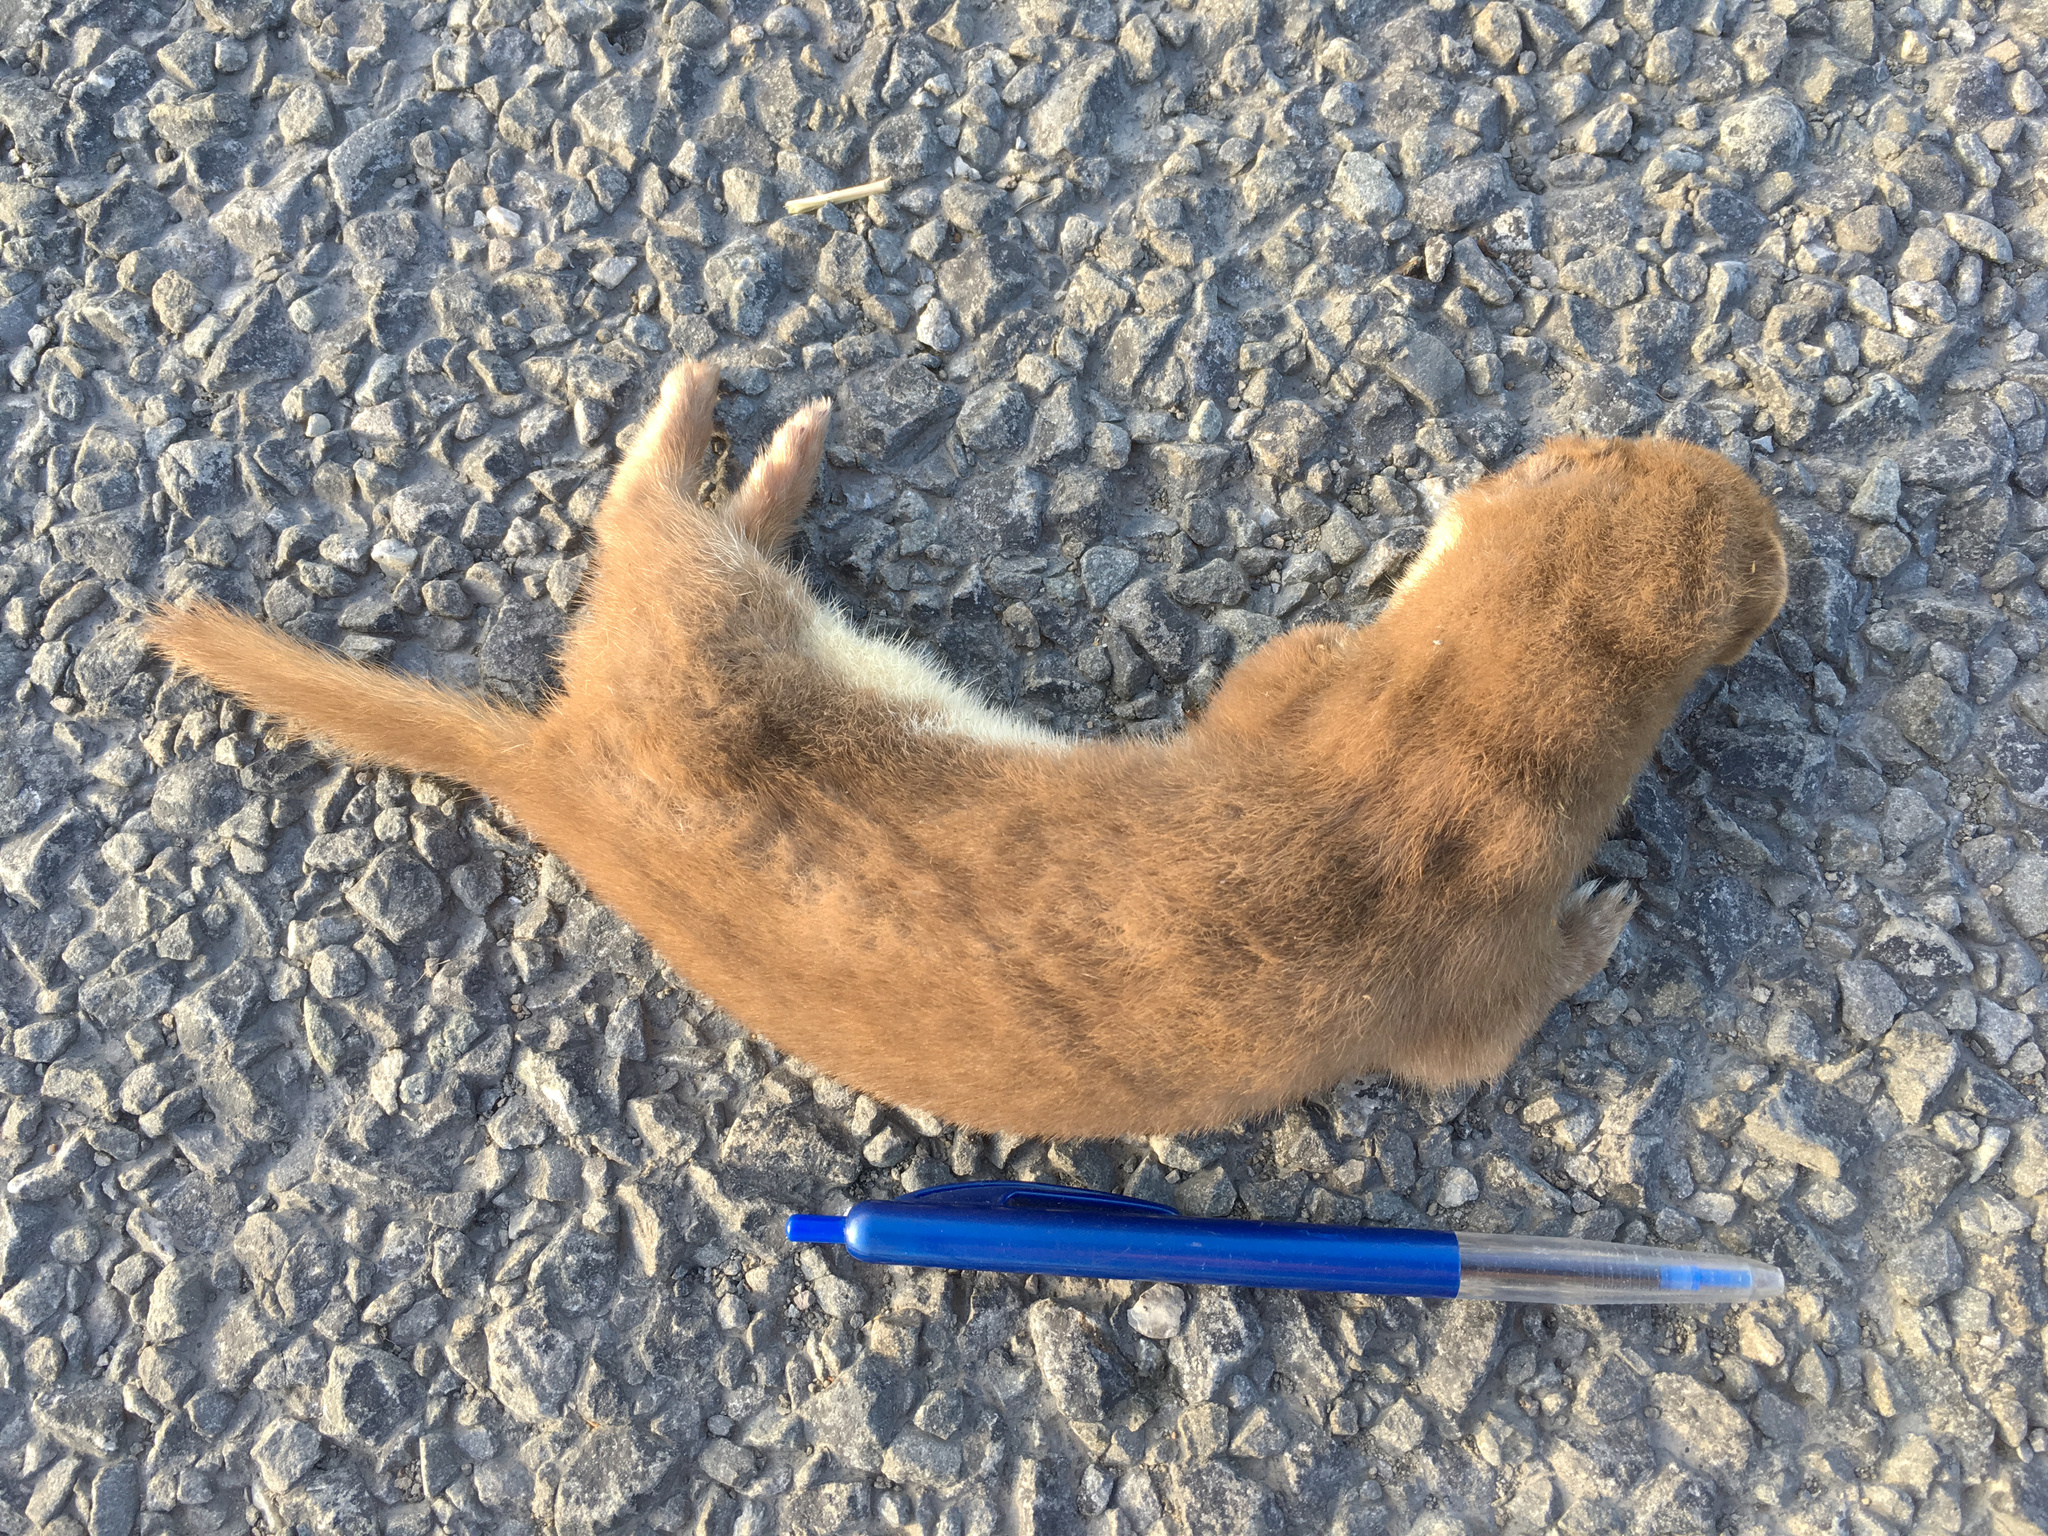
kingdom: Animalia
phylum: Chordata
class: Mammalia
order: Carnivora
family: Mustelidae
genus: Mustela
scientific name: Mustela nivalis
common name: Least weasel
